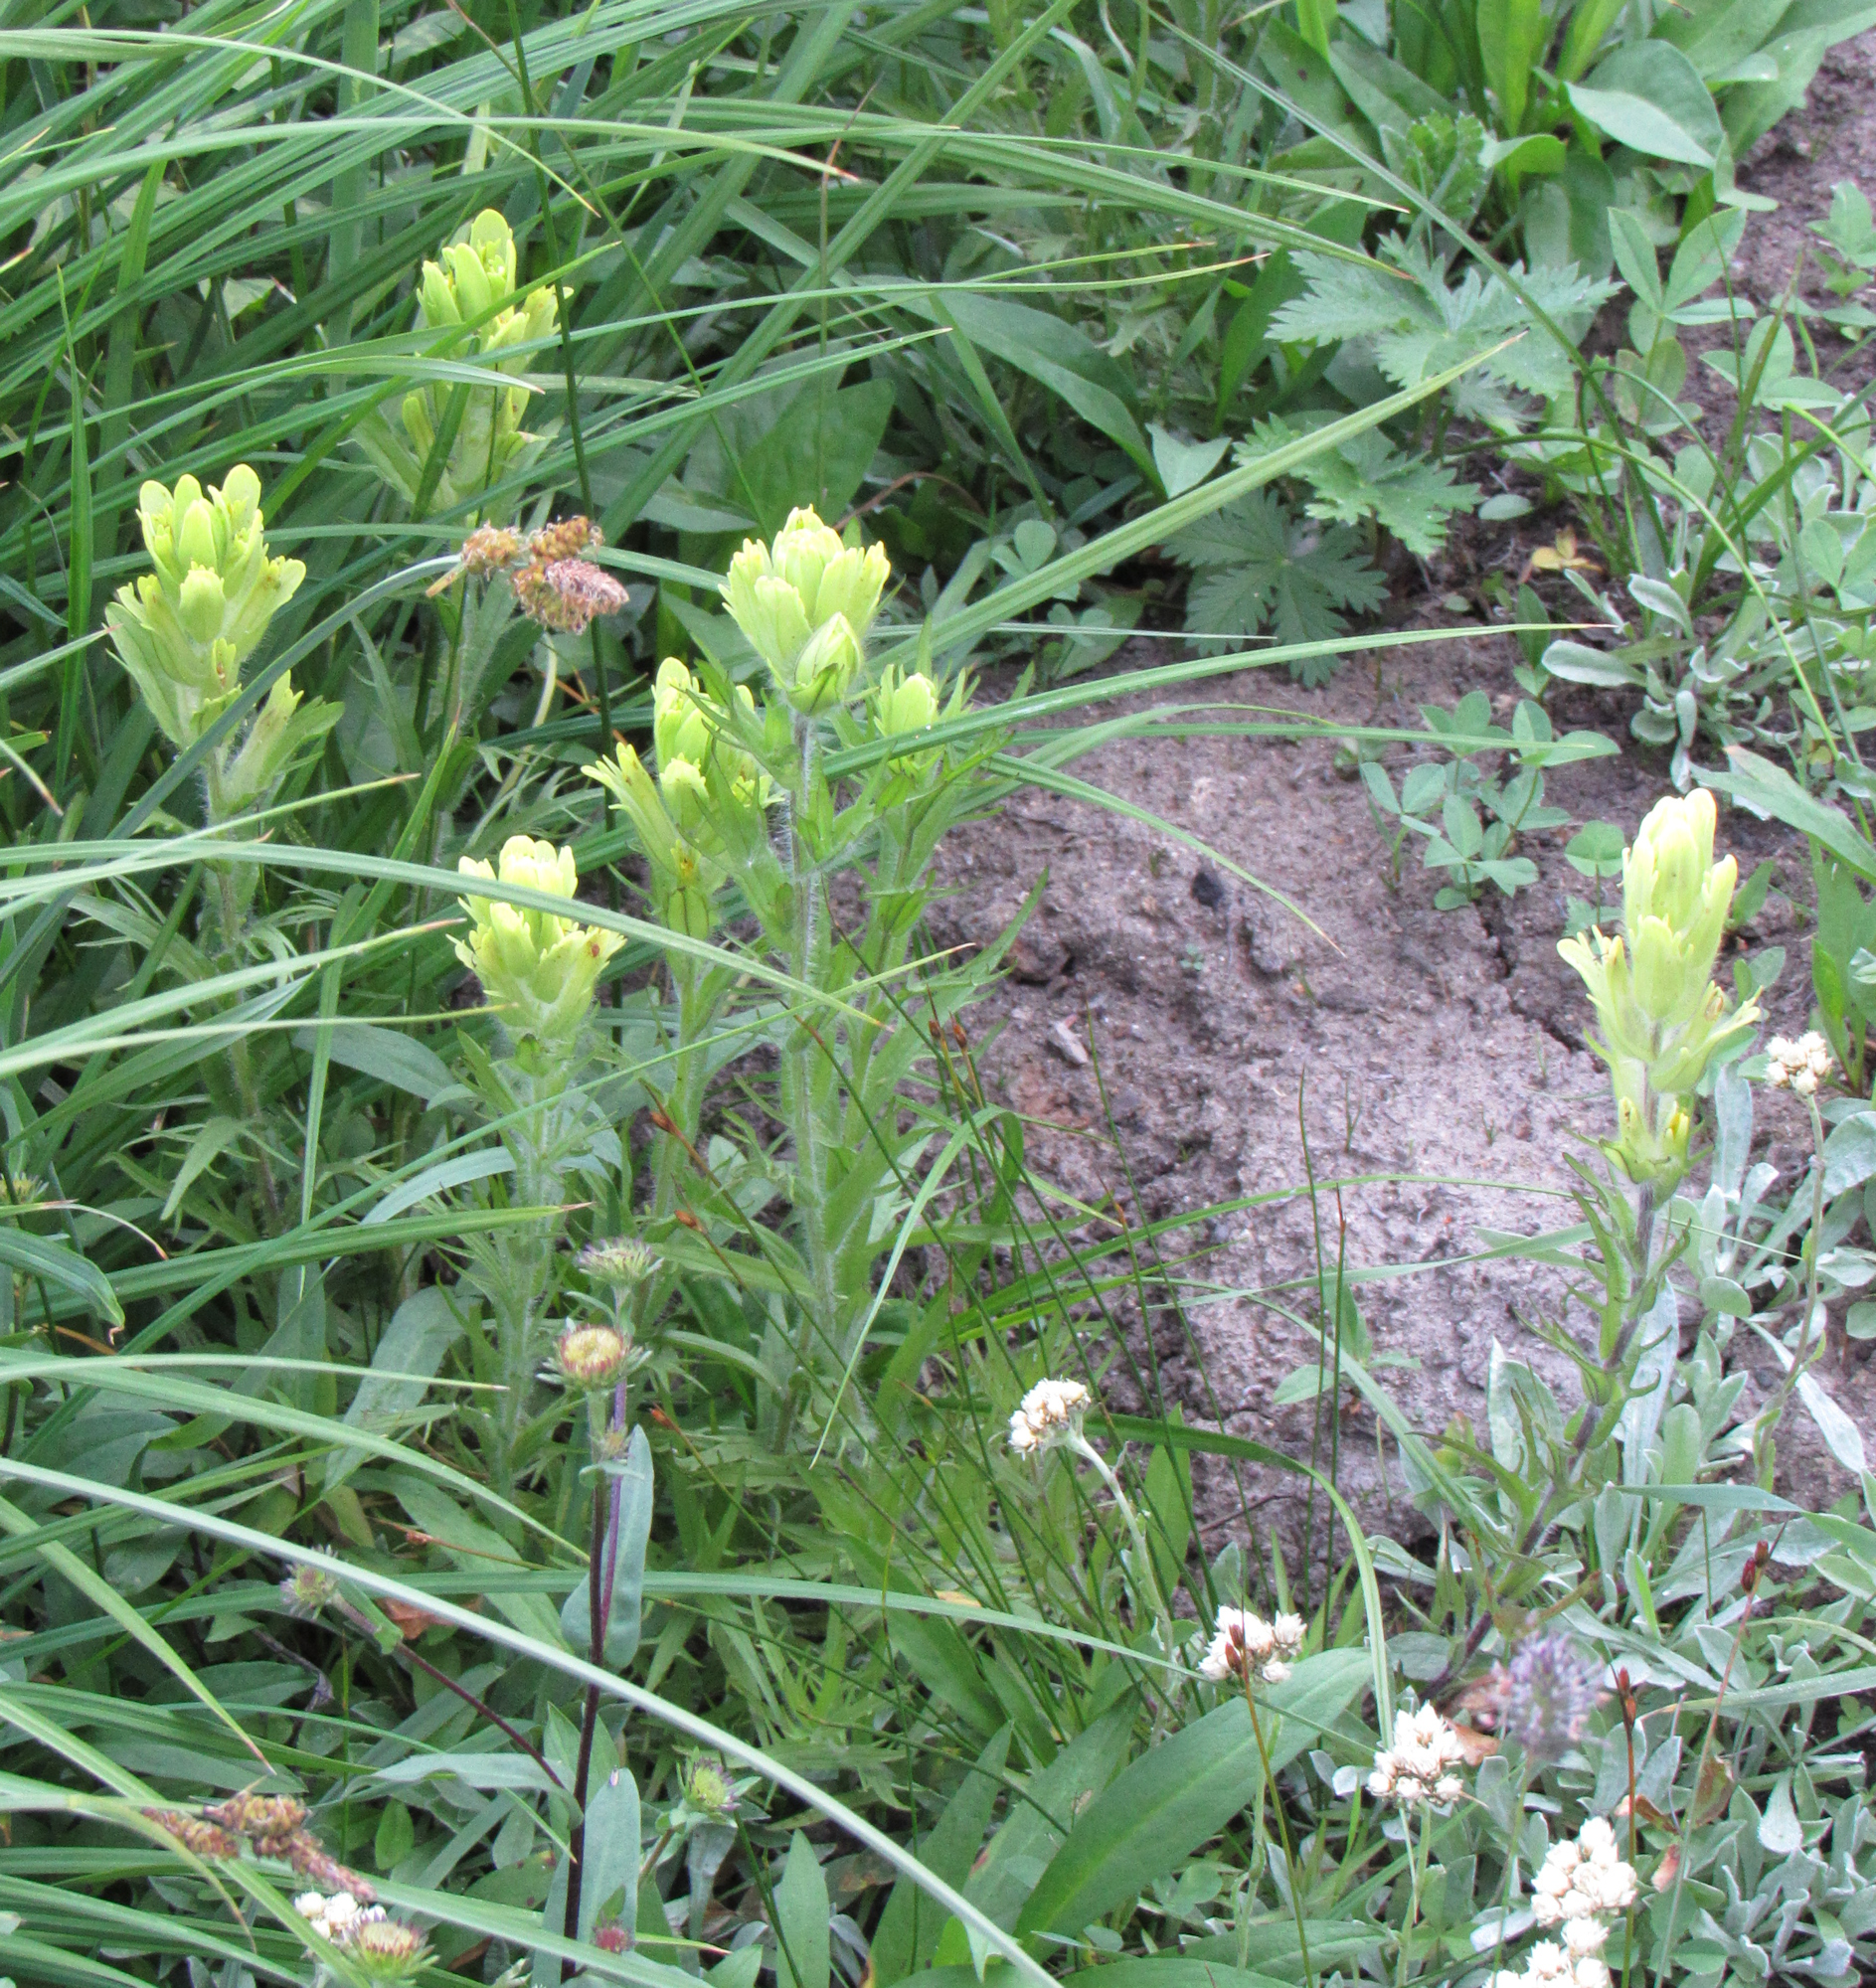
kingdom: Plantae
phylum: Tracheophyta
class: Magnoliopsida
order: Lamiales
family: Orobanchaceae
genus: Castilleja
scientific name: Castilleja cusickii
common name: Cusick's paintbrush
